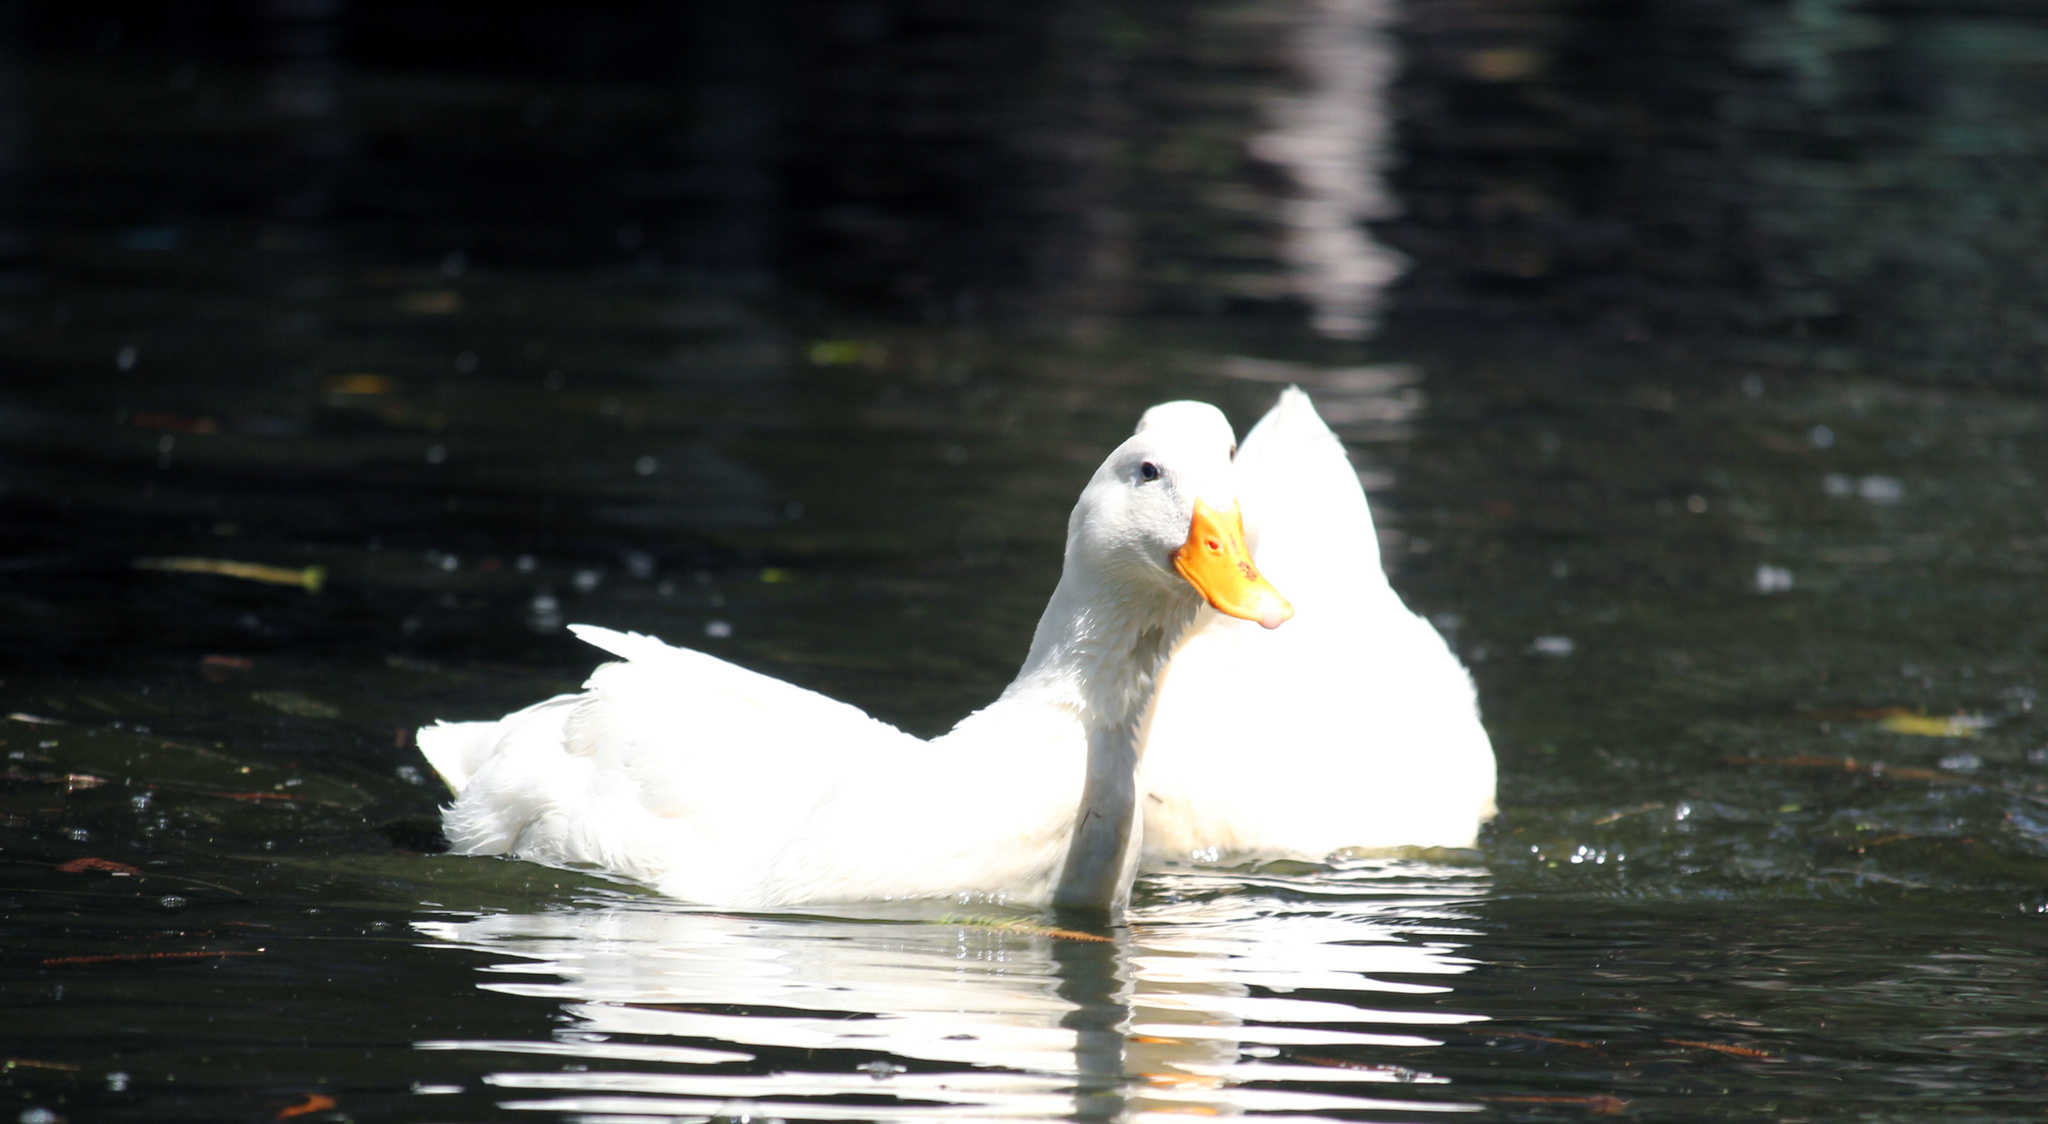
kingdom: Animalia
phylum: Chordata
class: Aves
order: Anseriformes
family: Anatidae
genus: Anas
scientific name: Anas platyrhynchos
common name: Mallard
